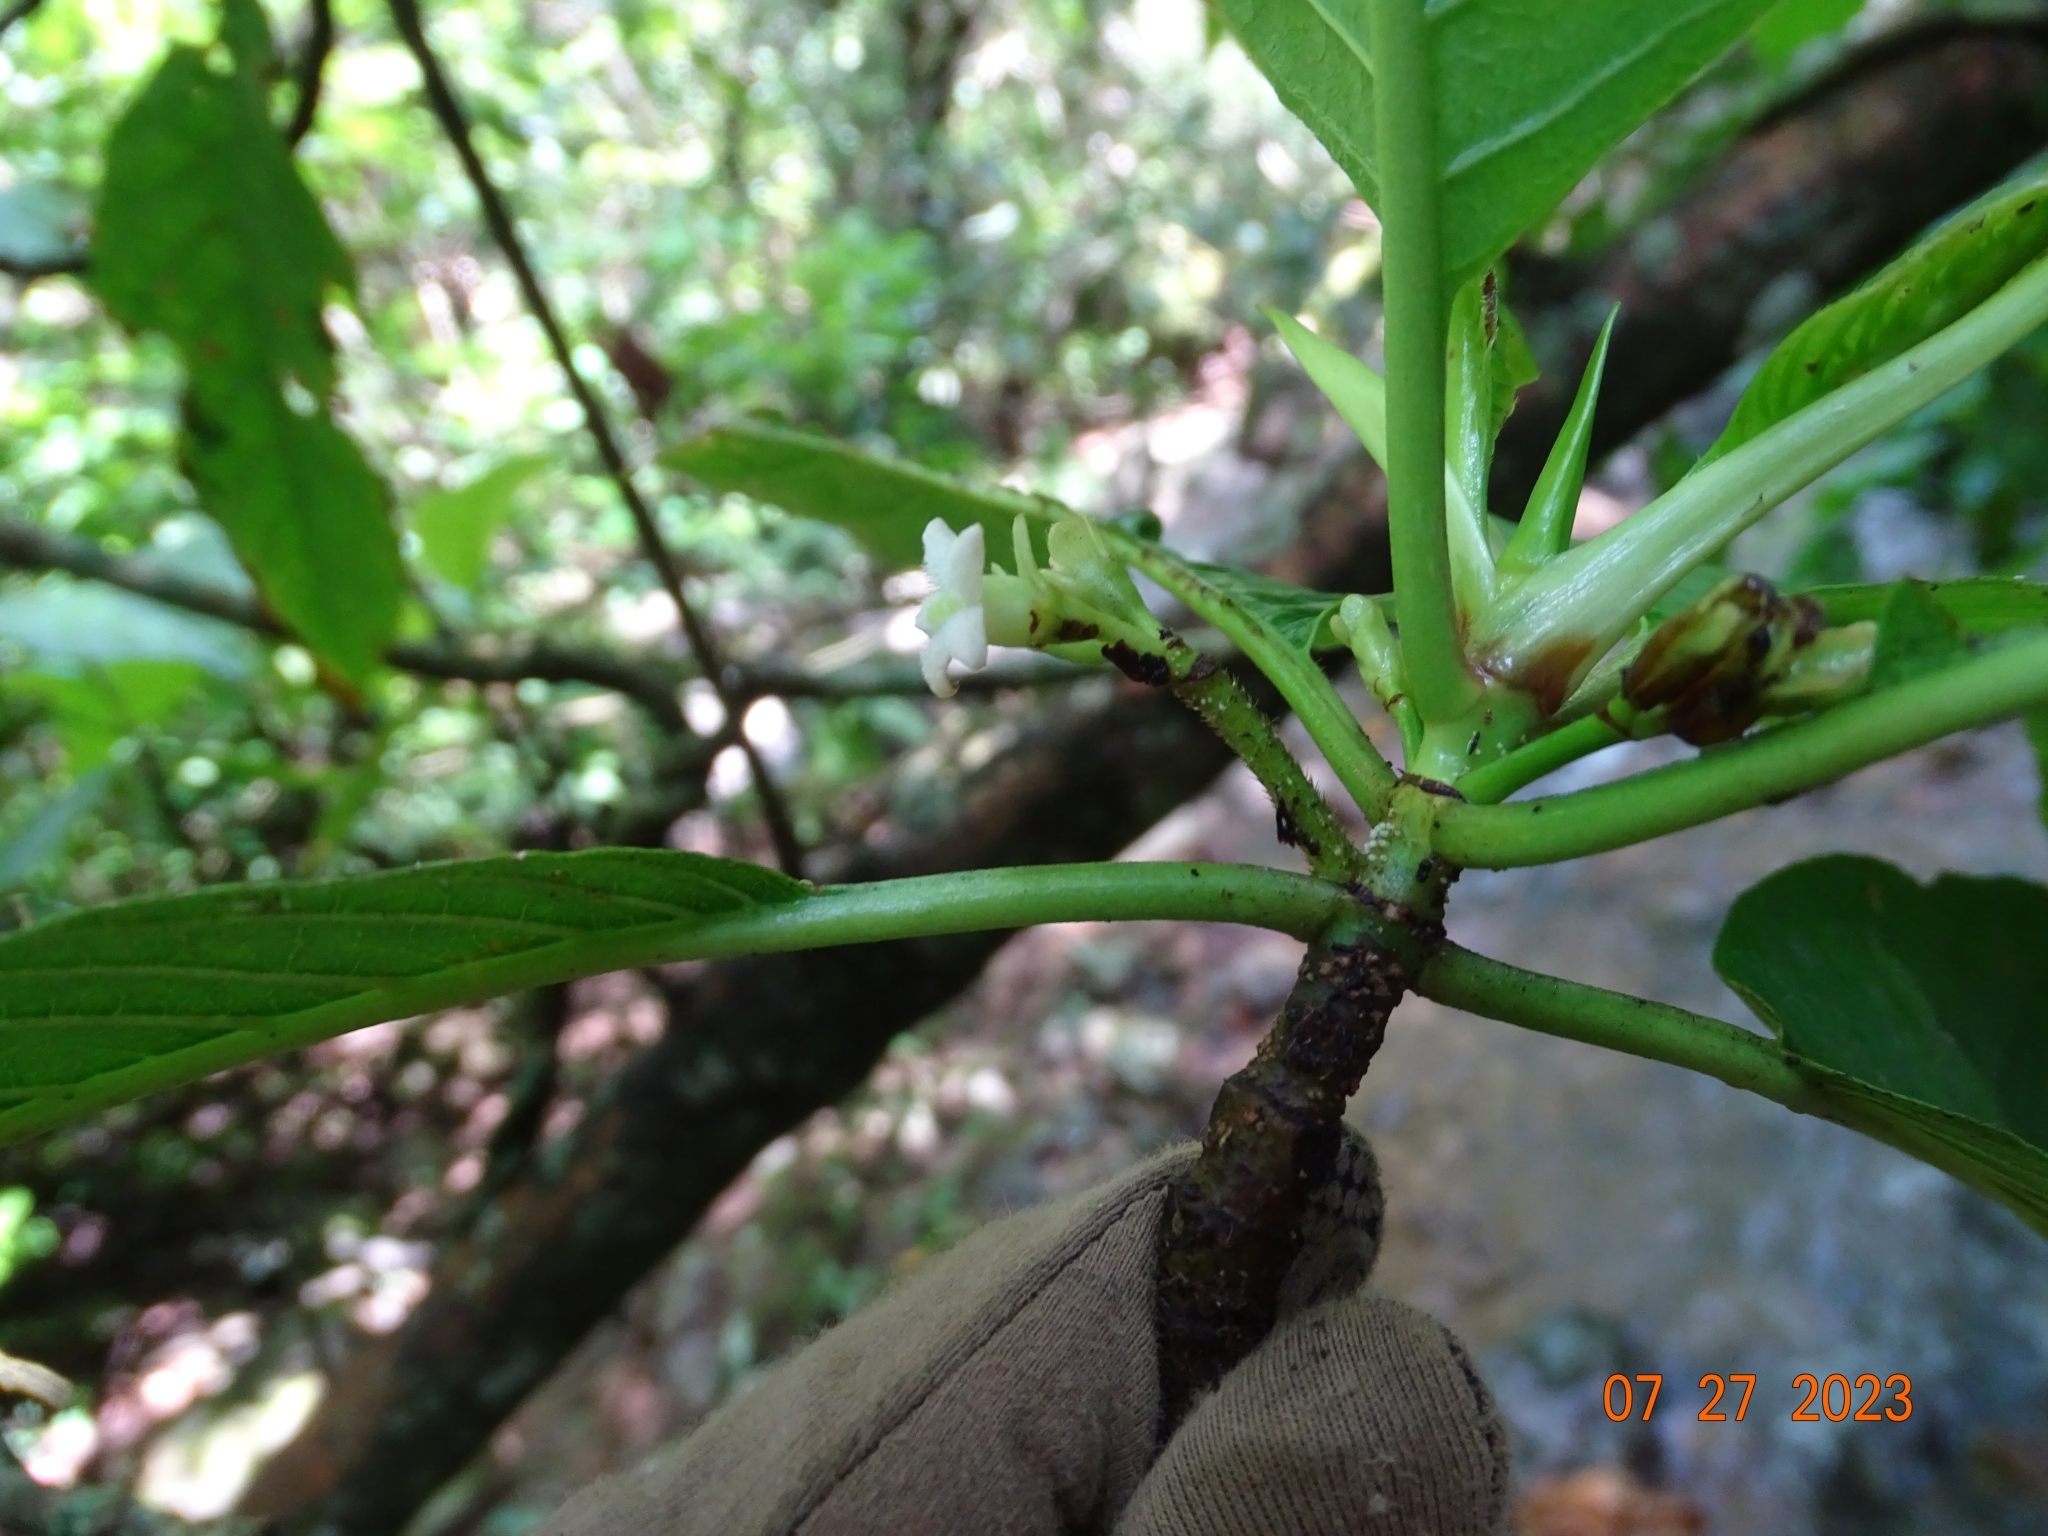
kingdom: Plantae
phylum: Tracheophyta
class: Magnoliopsida
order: Gentianales
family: Rubiaceae
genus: Sommera
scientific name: Sommera grandis
